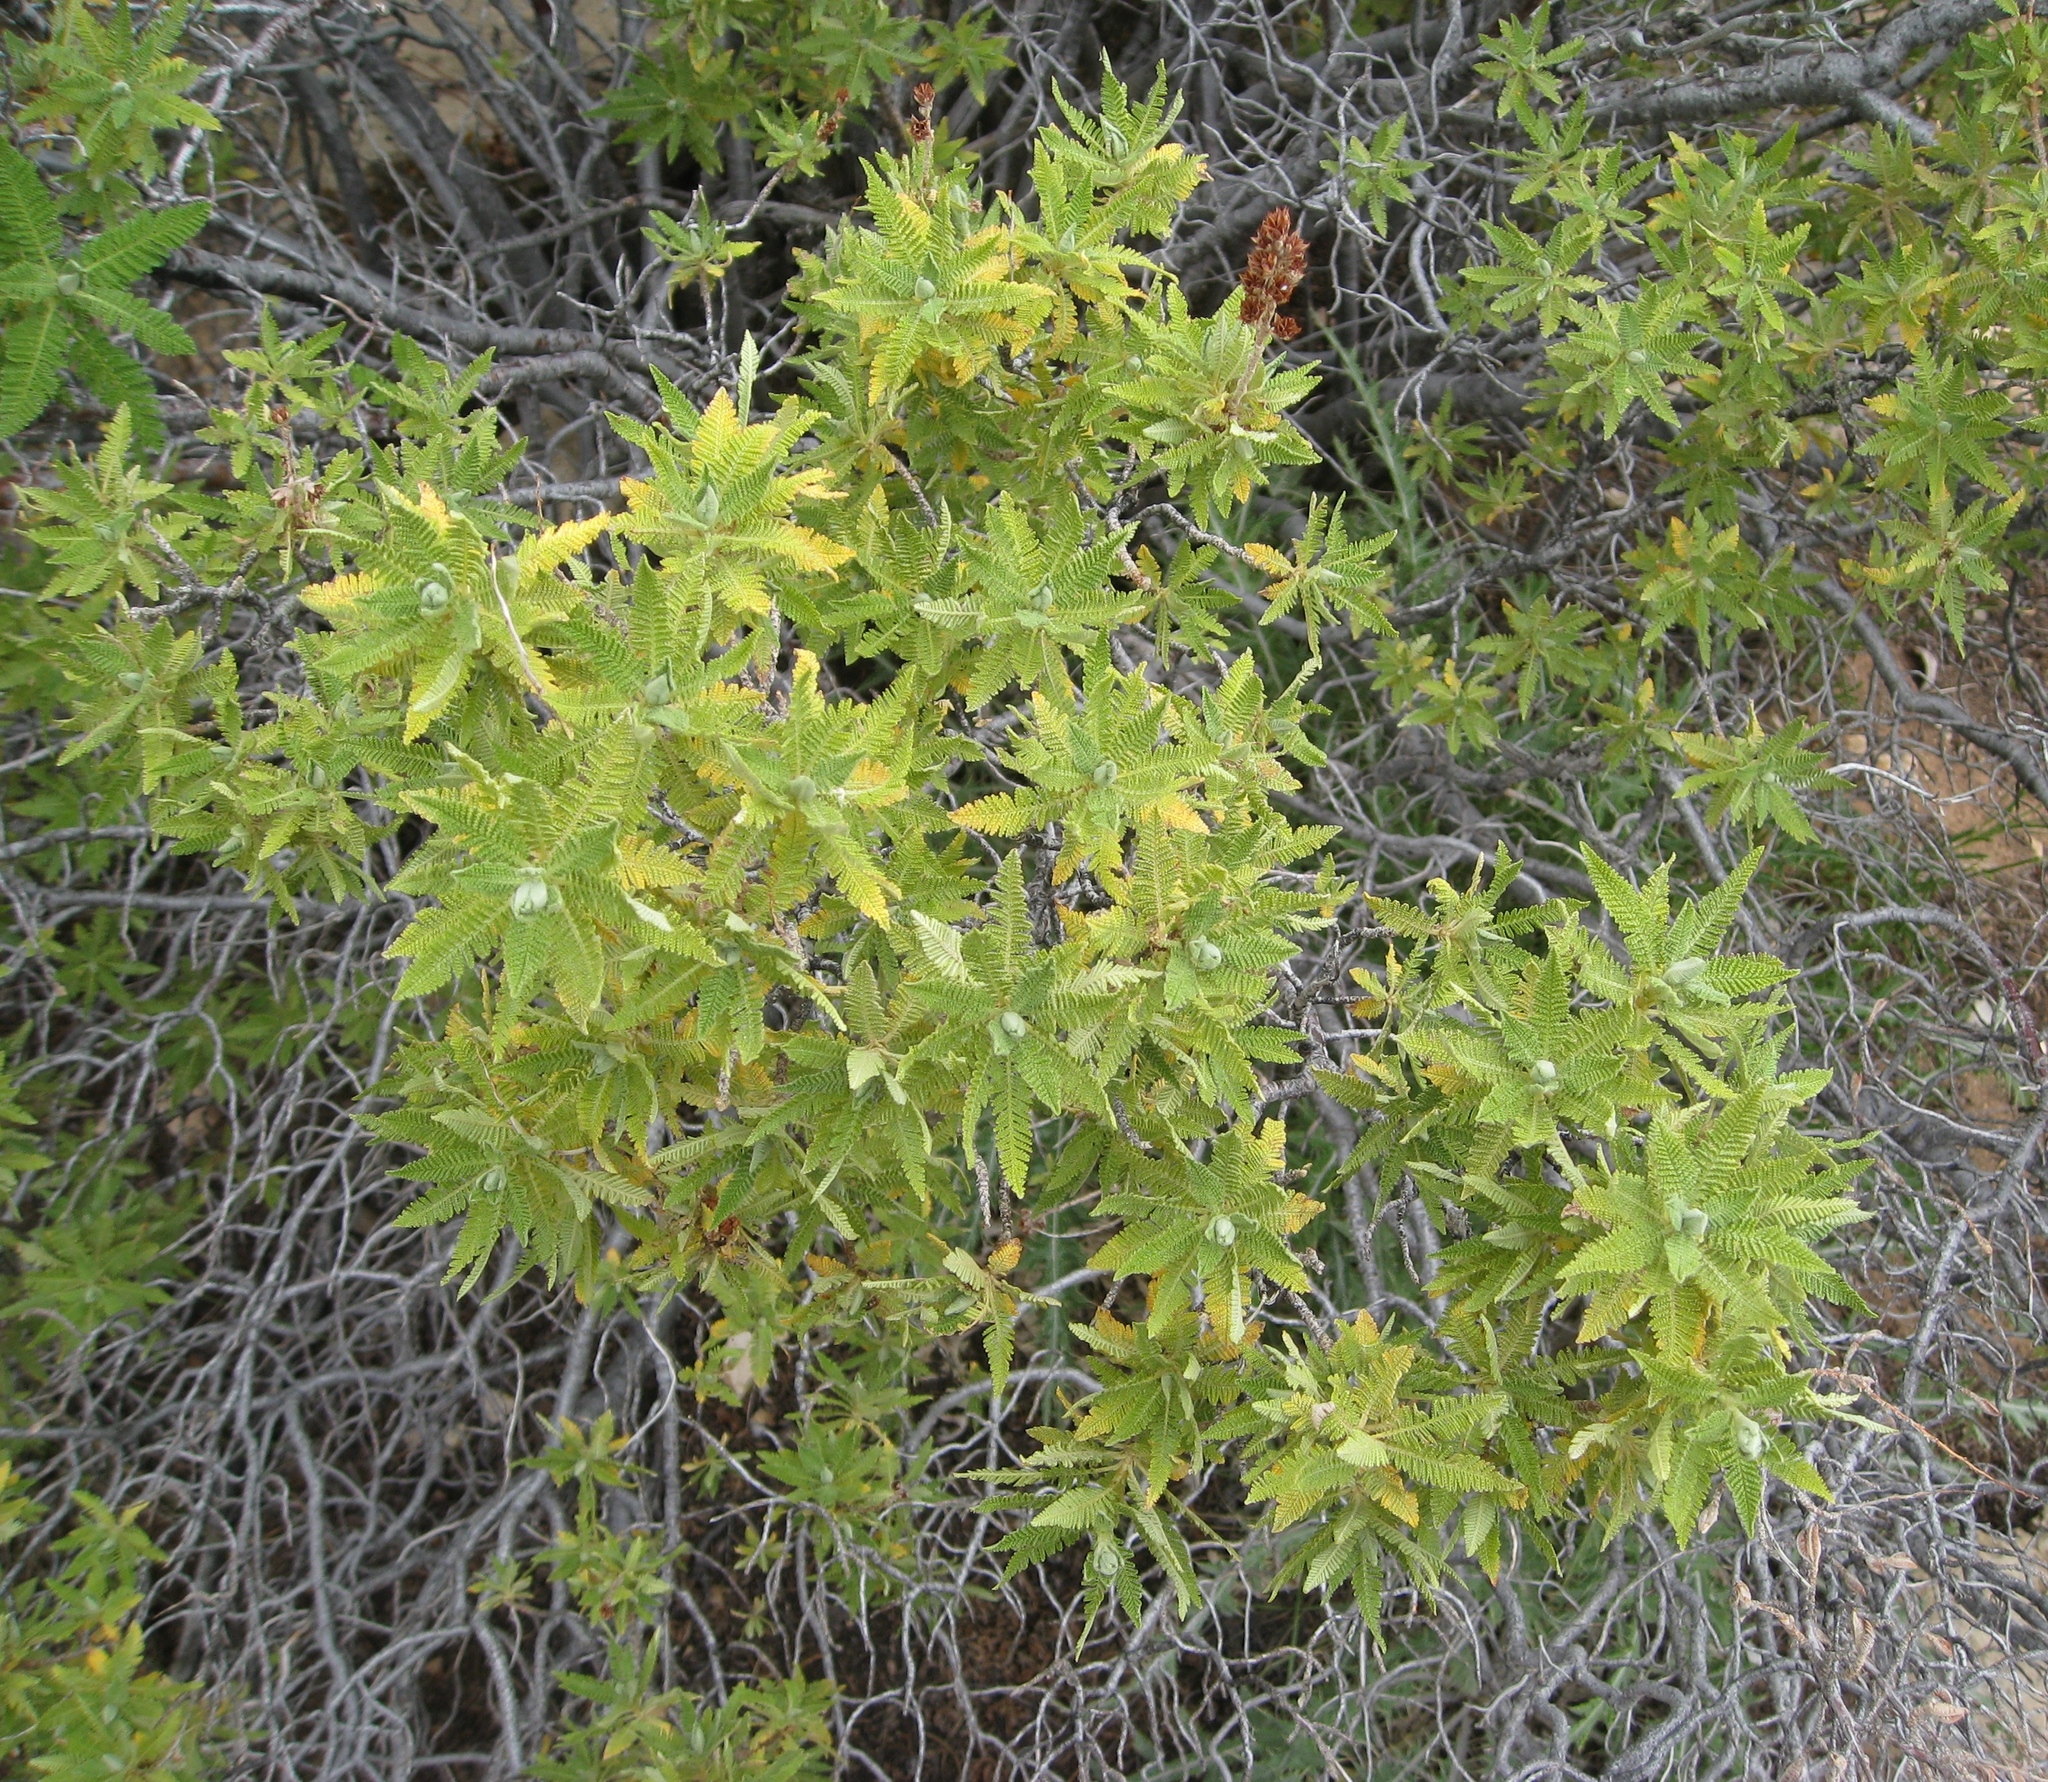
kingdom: Plantae
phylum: Tracheophyta
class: Magnoliopsida
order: Rosales
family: Rosaceae
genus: Chamaebatiaria
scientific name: Chamaebatiaria millefolium
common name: Fernbush
